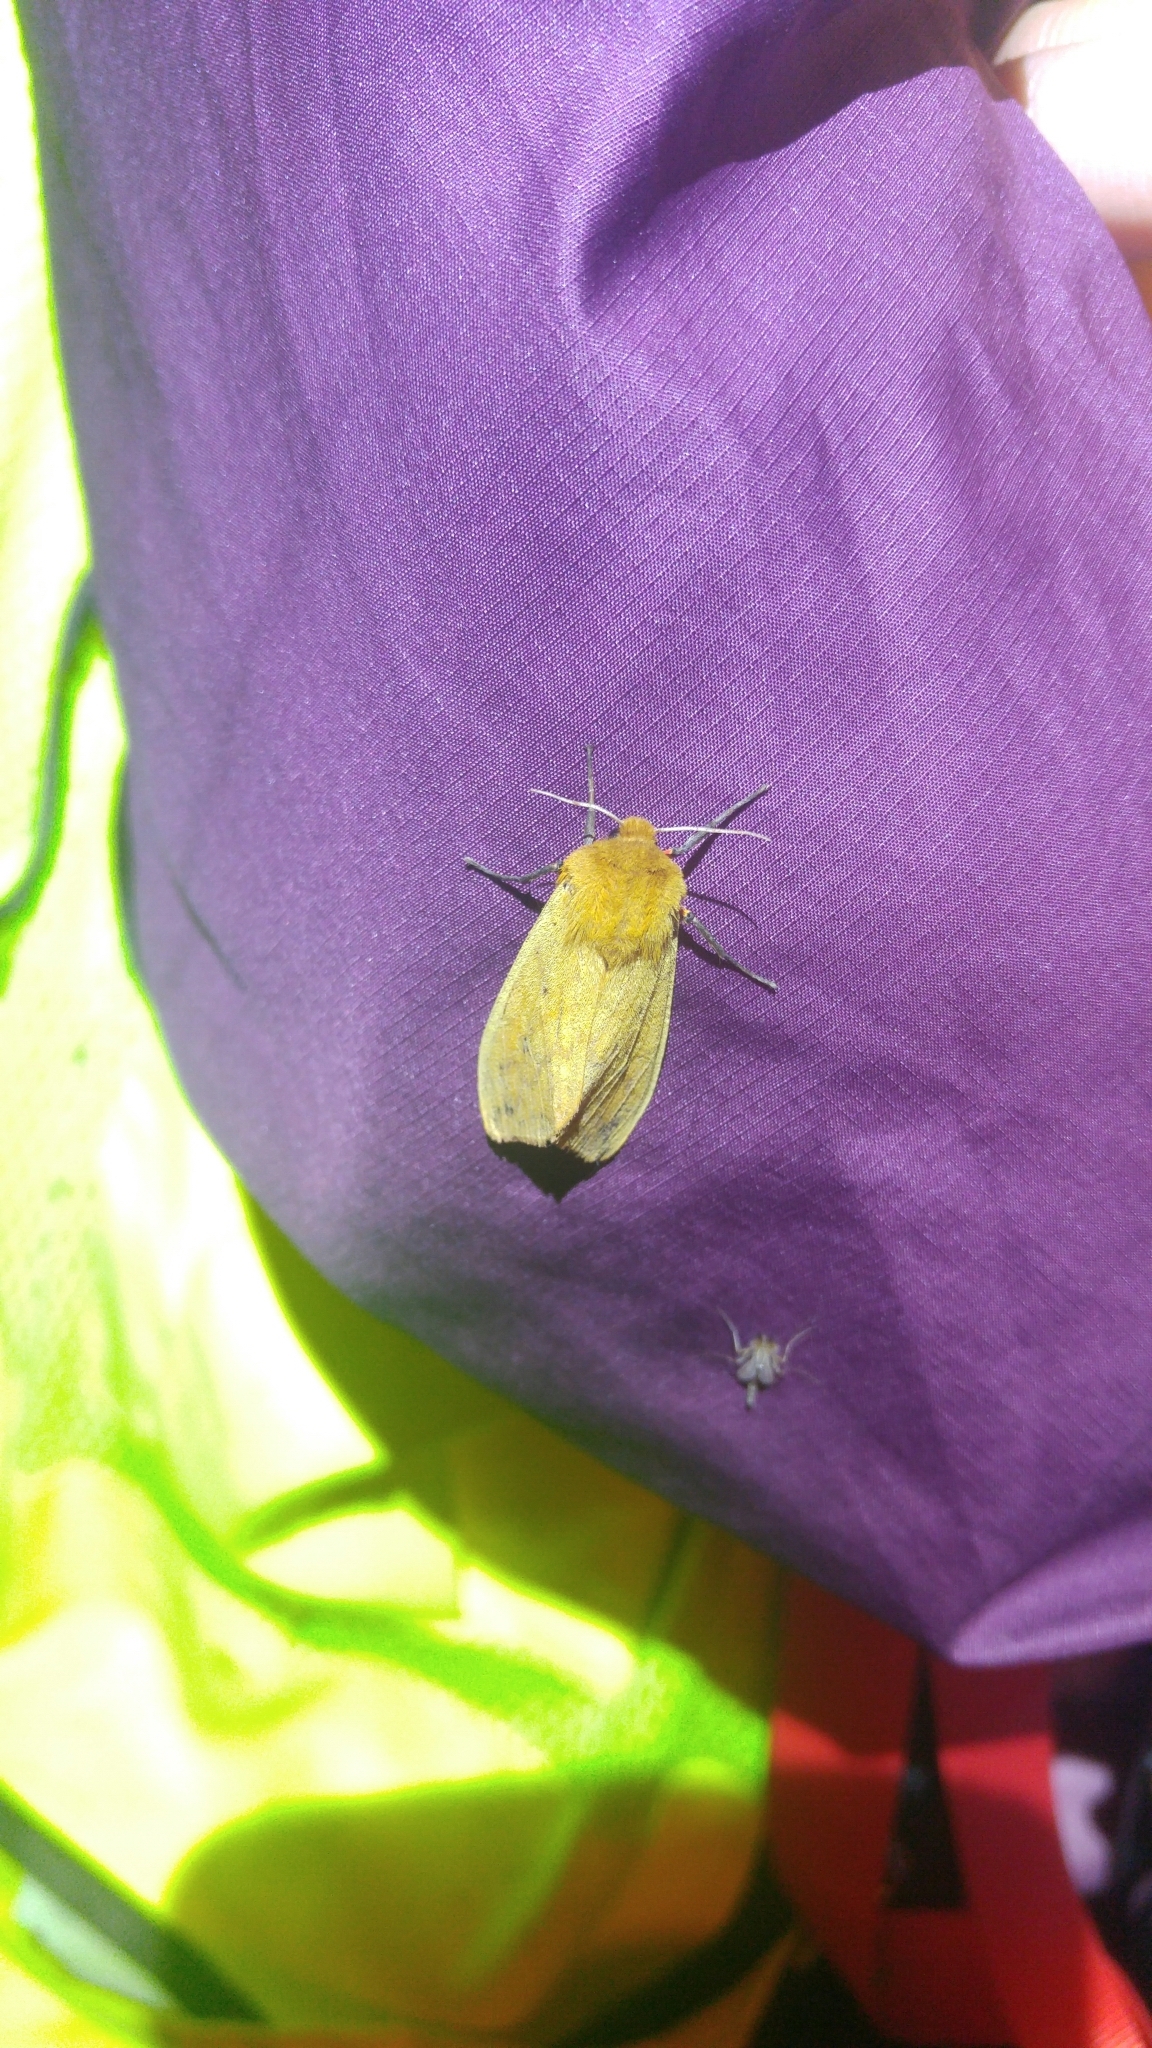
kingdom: Animalia
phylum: Arthropoda
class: Insecta
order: Lepidoptera
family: Erebidae
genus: Pyrrharctia
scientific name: Pyrrharctia isabella
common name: Isabella tiger moth
